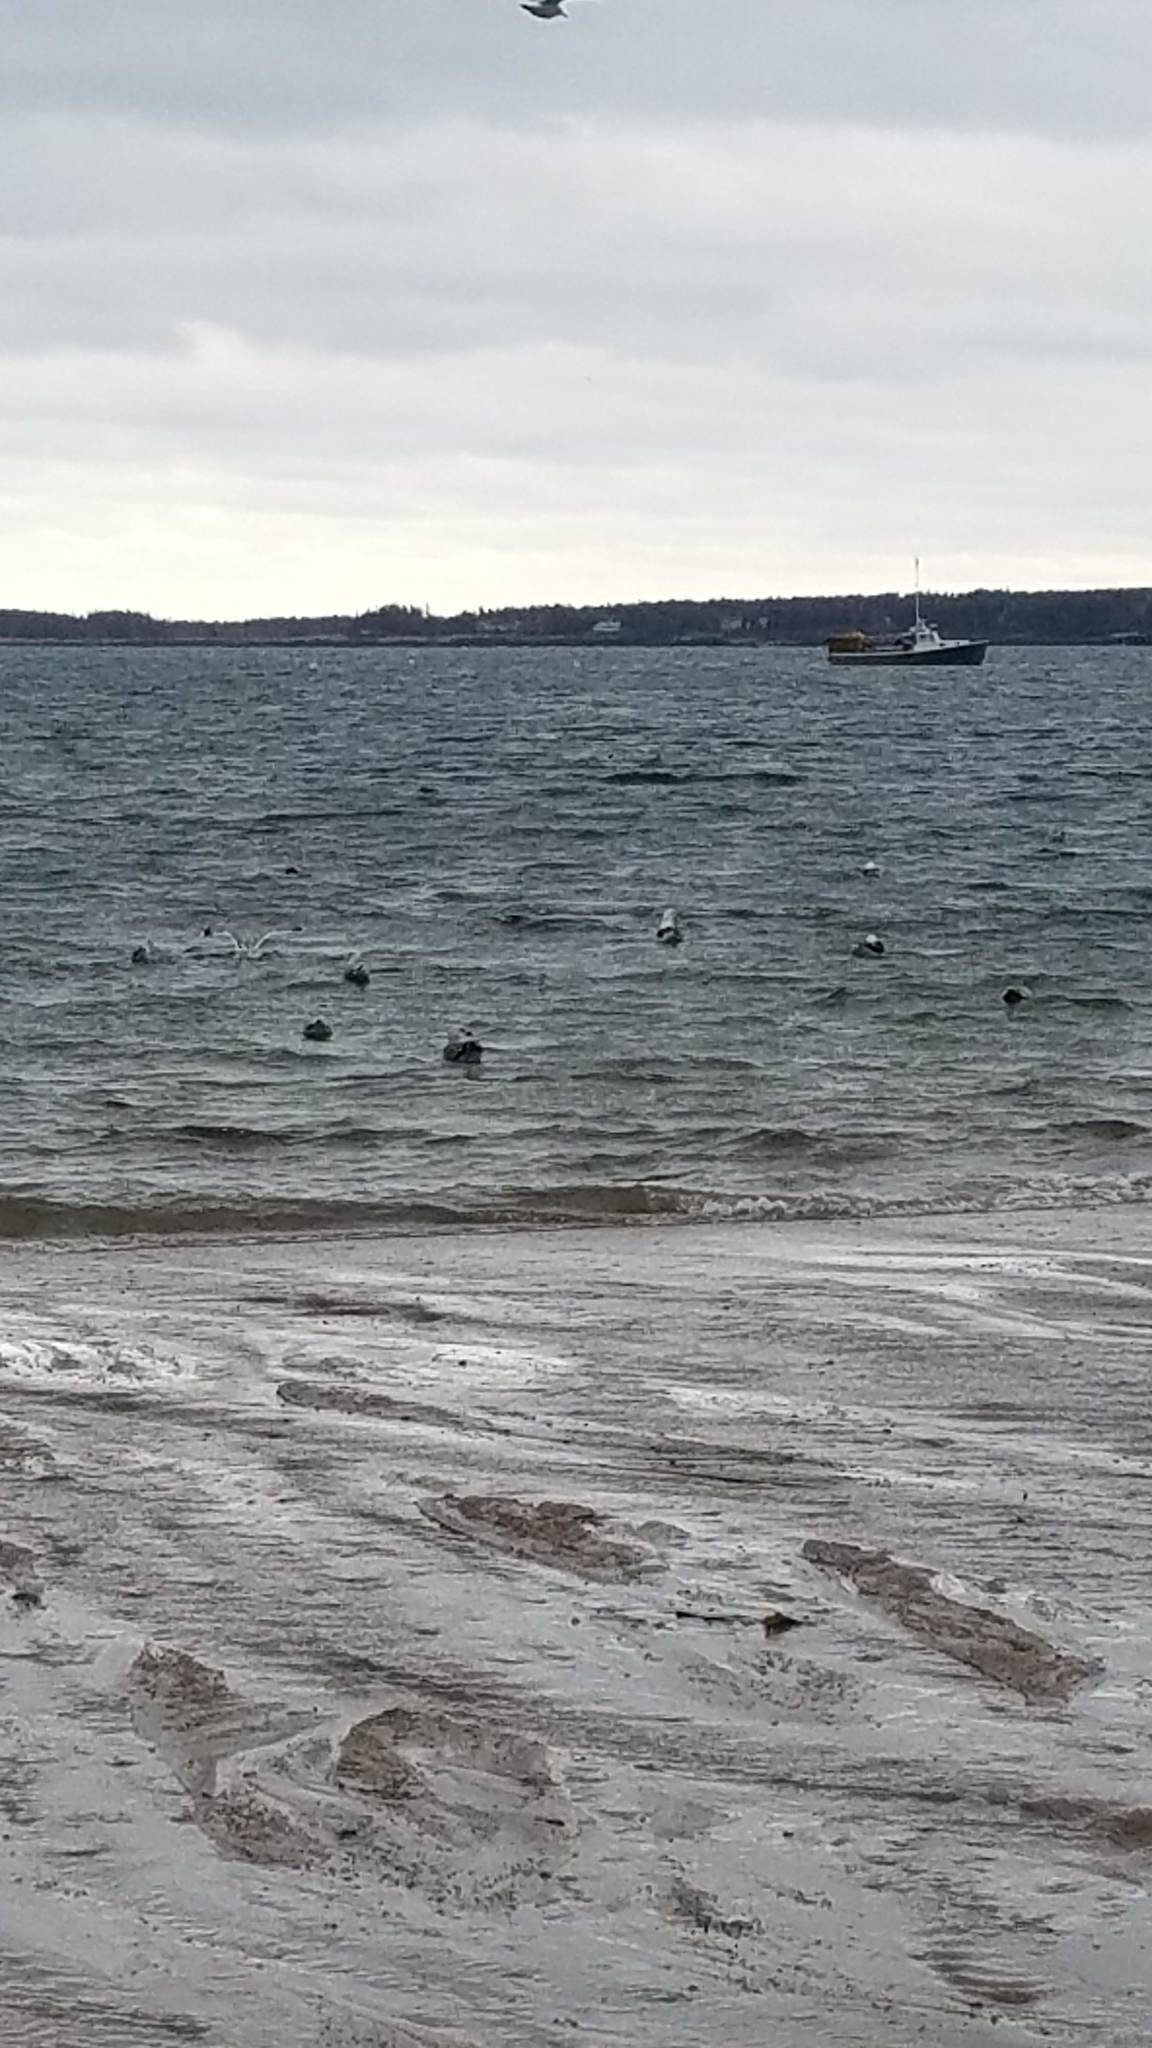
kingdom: Animalia
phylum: Chordata
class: Aves
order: Charadriiformes
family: Laridae
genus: Larus
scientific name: Larus
